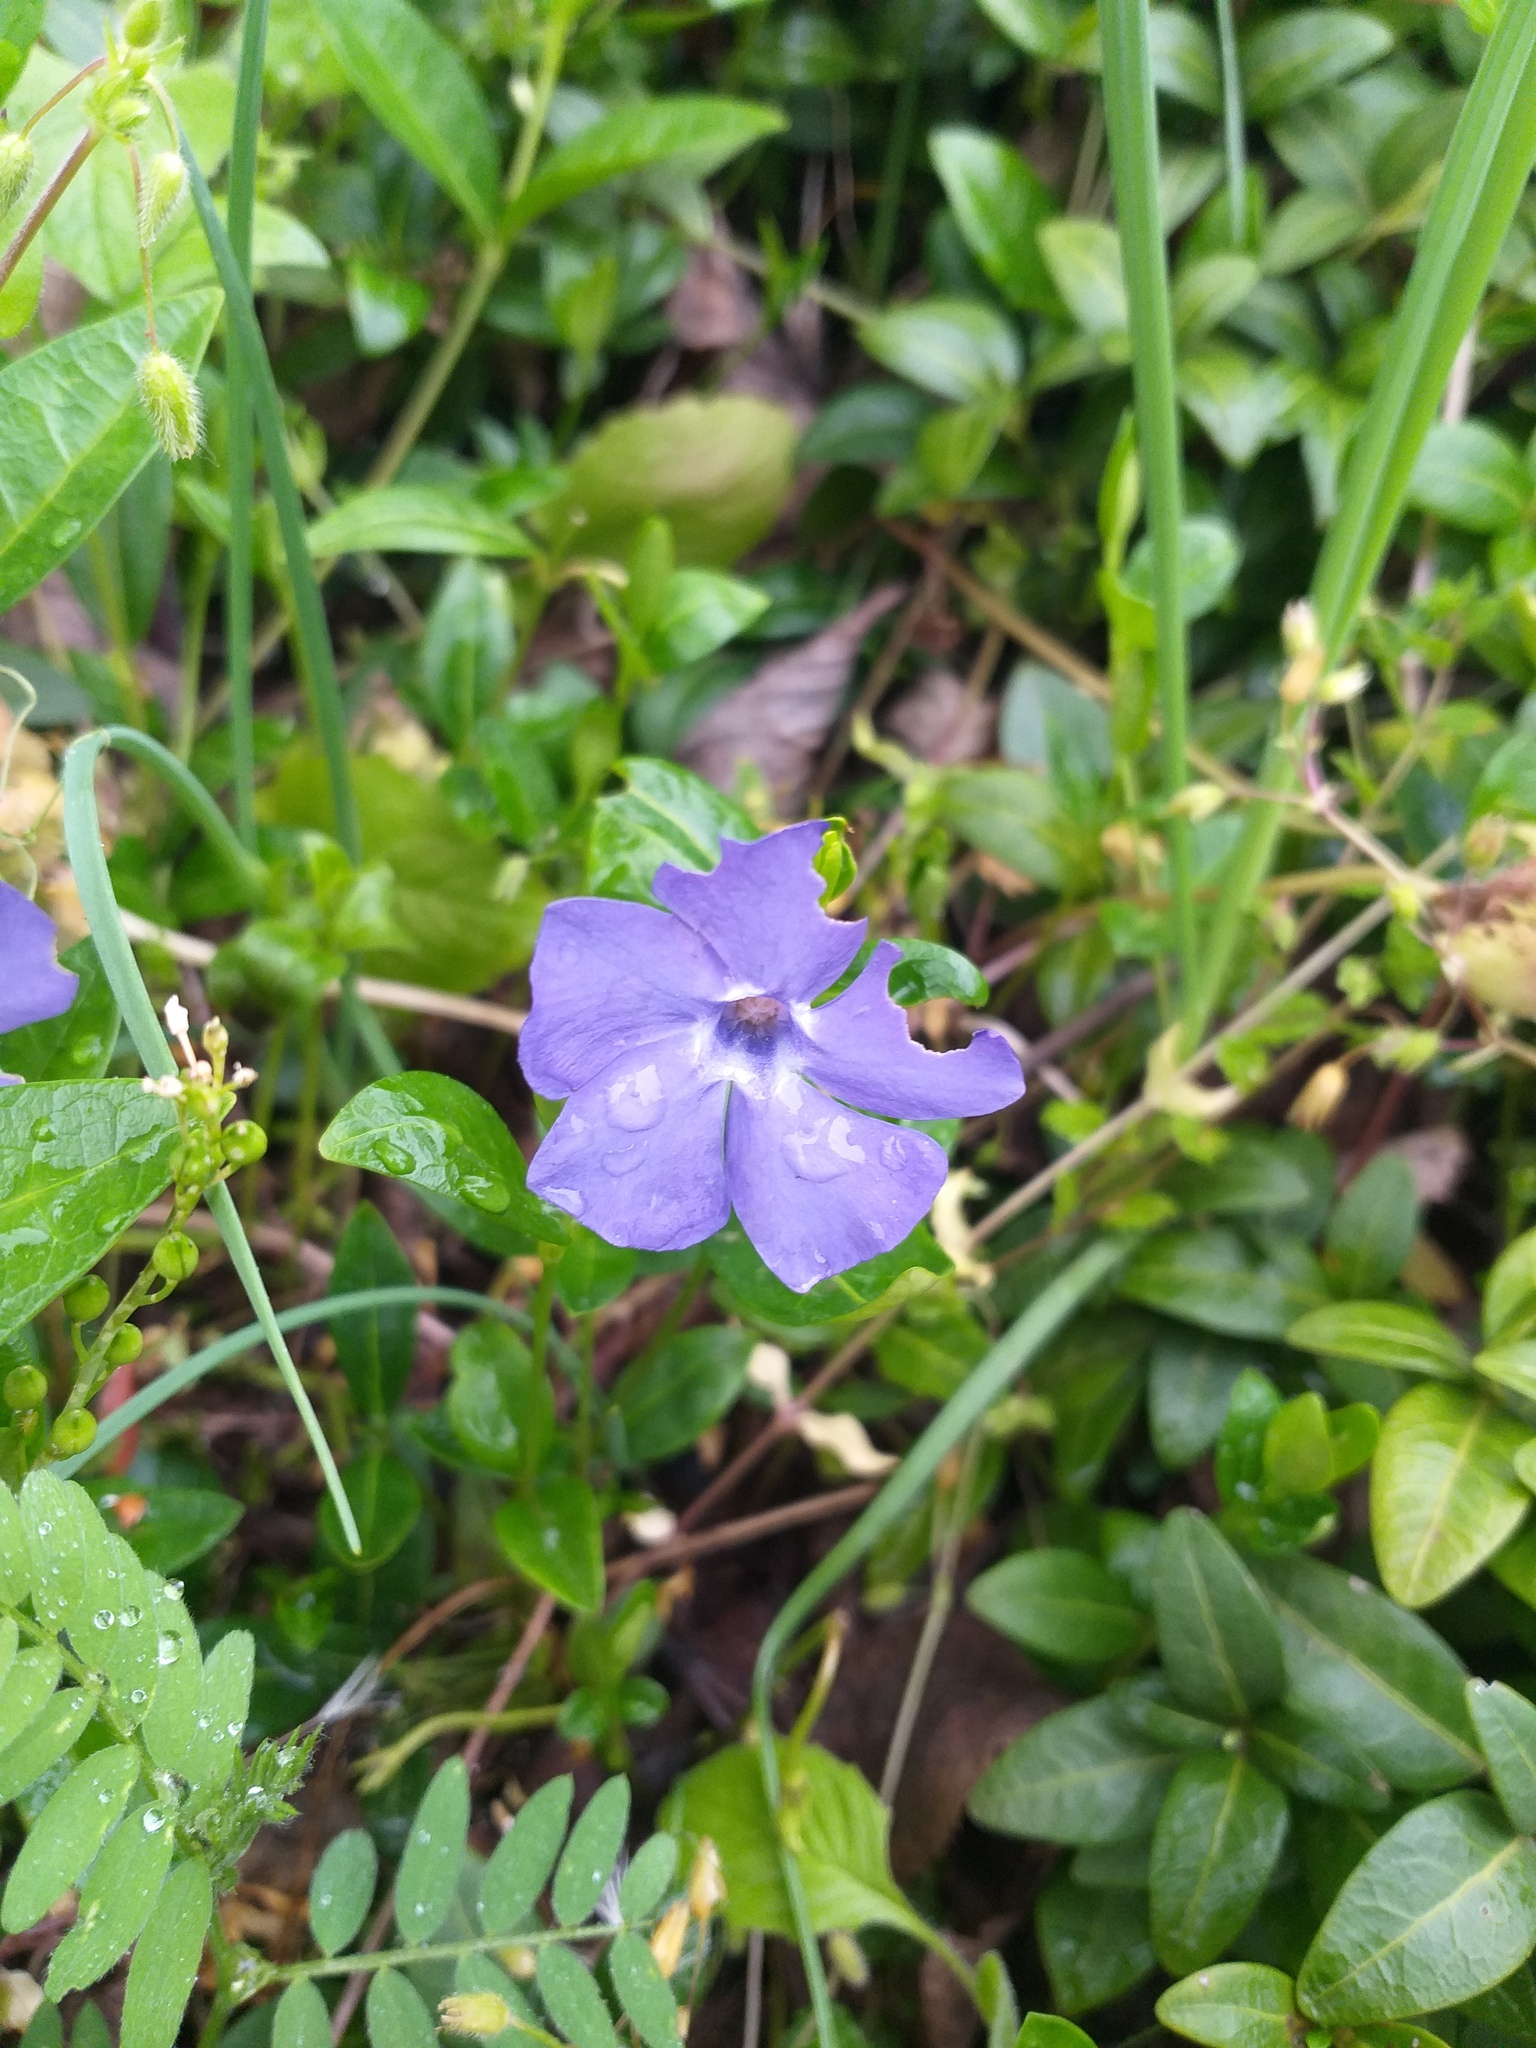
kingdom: Plantae
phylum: Tracheophyta
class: Magnoliopsida
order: Gentianales
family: Apocynaceae
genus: Vinca
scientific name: Vinca minor
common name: Lesser periwinkle
